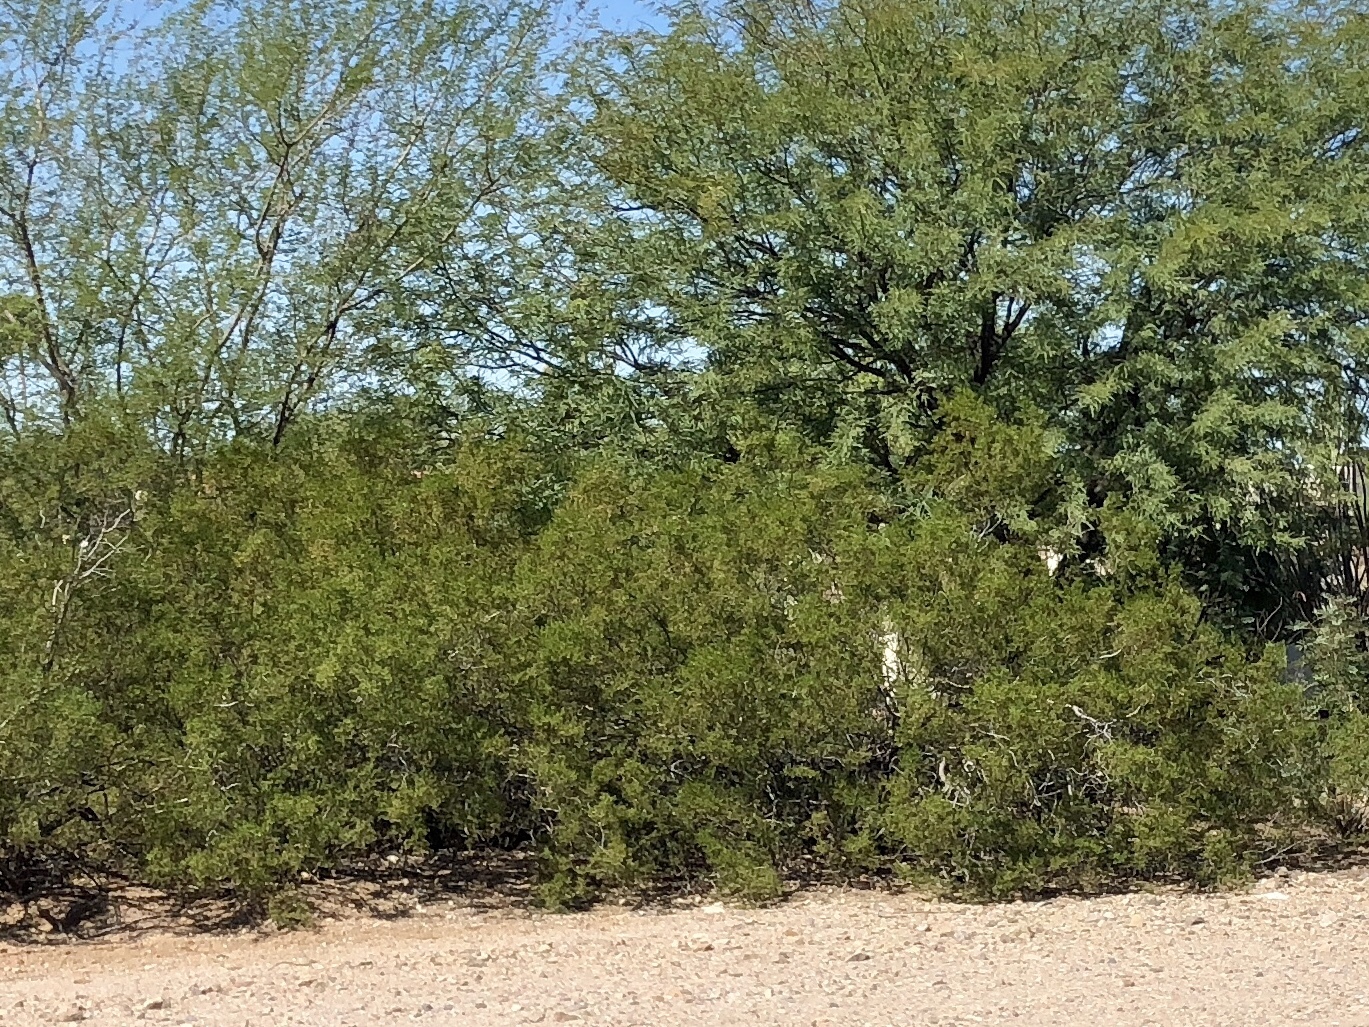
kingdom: Plantae
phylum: Tracheophyta
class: Magnoliopsida
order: Zygophyllales
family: Zygophyllaceae
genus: Larrea
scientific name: Larrea tridentata
